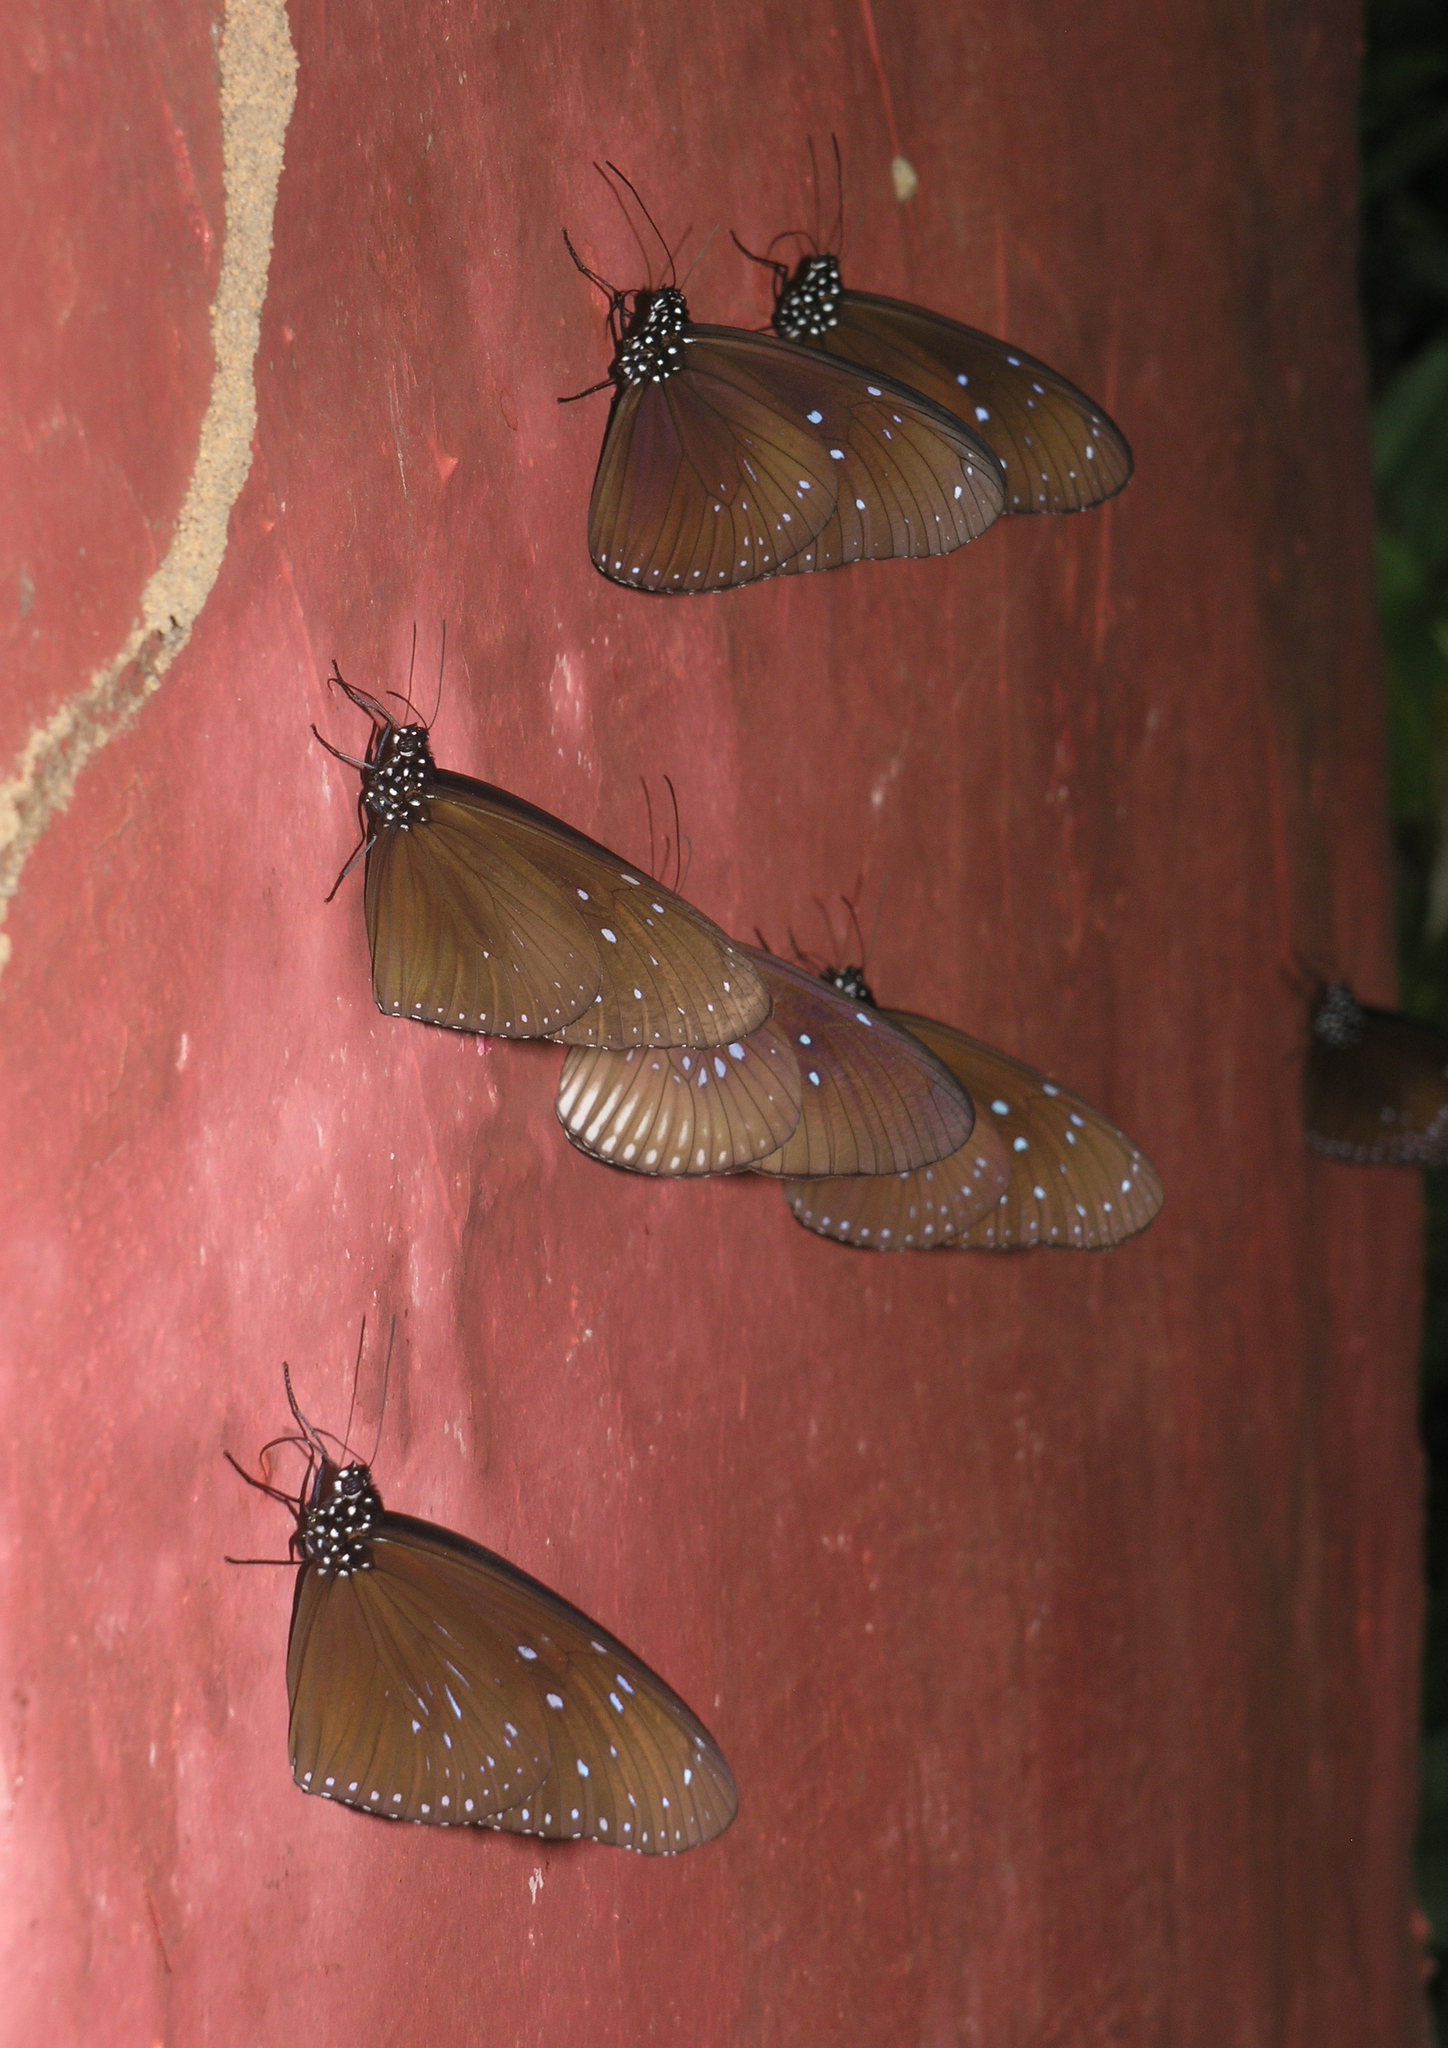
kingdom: Animalia
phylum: Arthropoda
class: Insecta
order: Lepidoptera
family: Nymphalidae
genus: Euploea
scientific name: Euploea mulciber
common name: Striped blue crow butterfly
